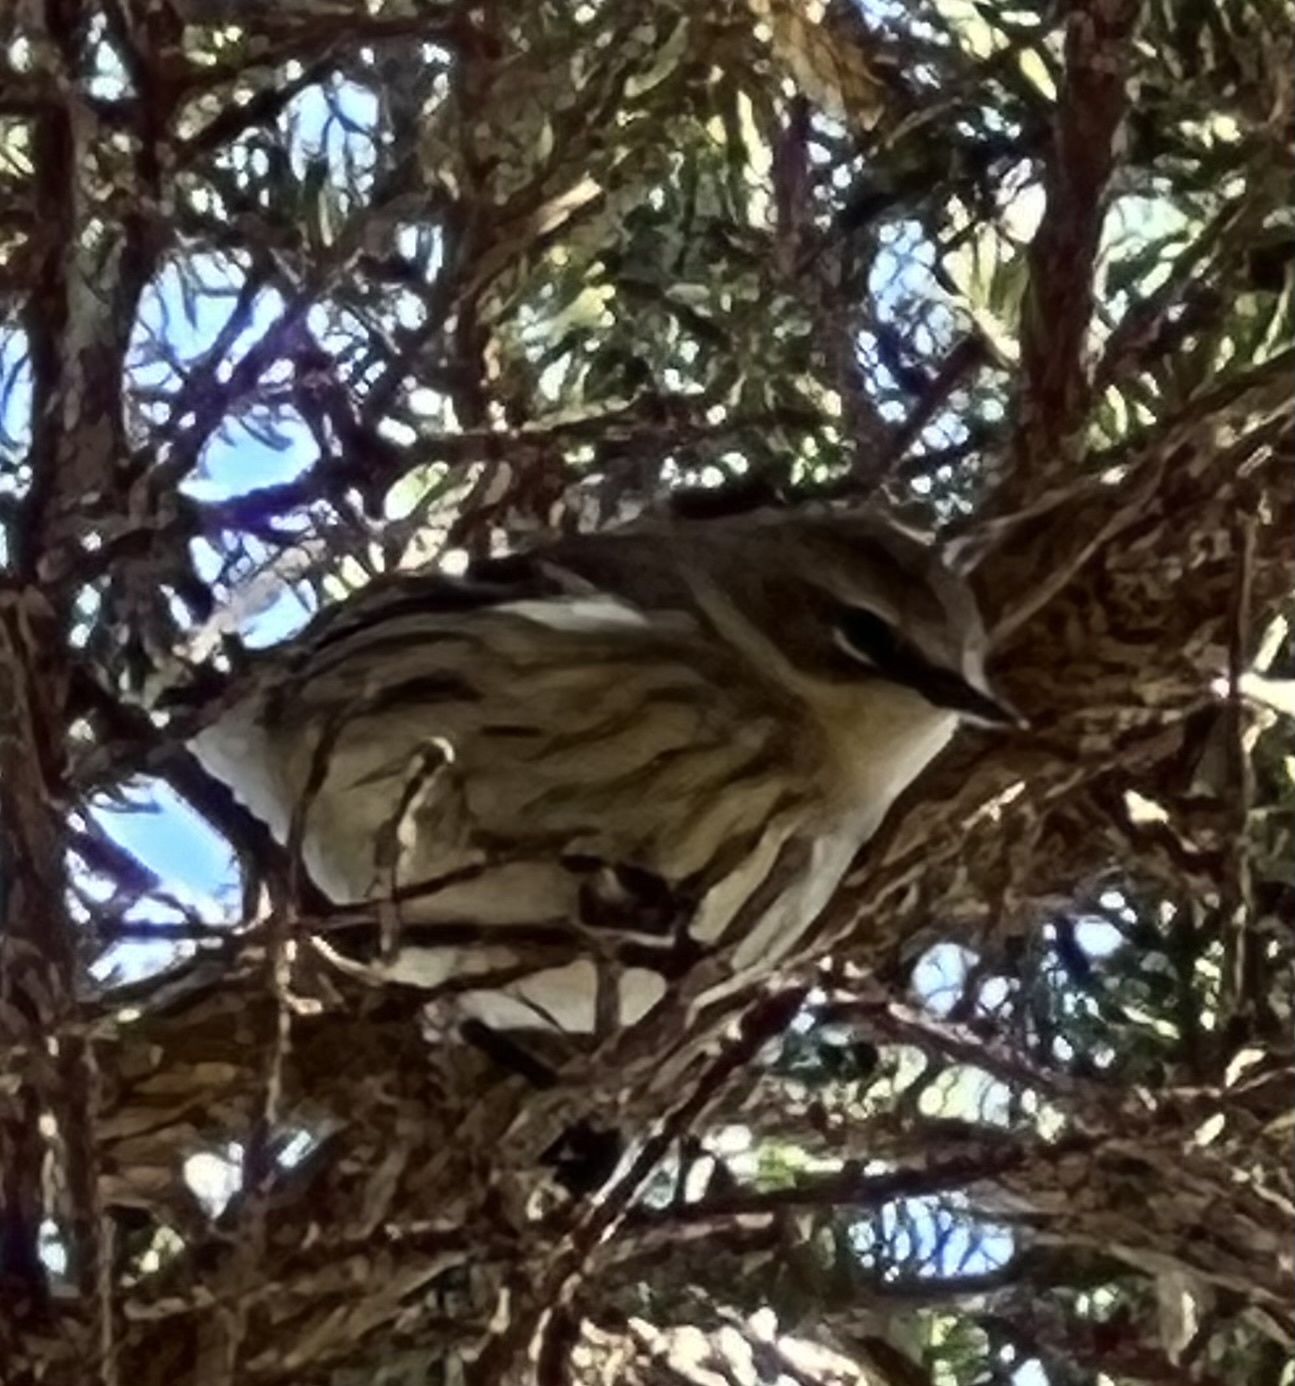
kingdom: Animalia
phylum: Chordata
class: Aves
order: Passeriformes
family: Parulidae
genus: Setophaga
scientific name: Setophaga coronata
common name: Myrtle warbler
